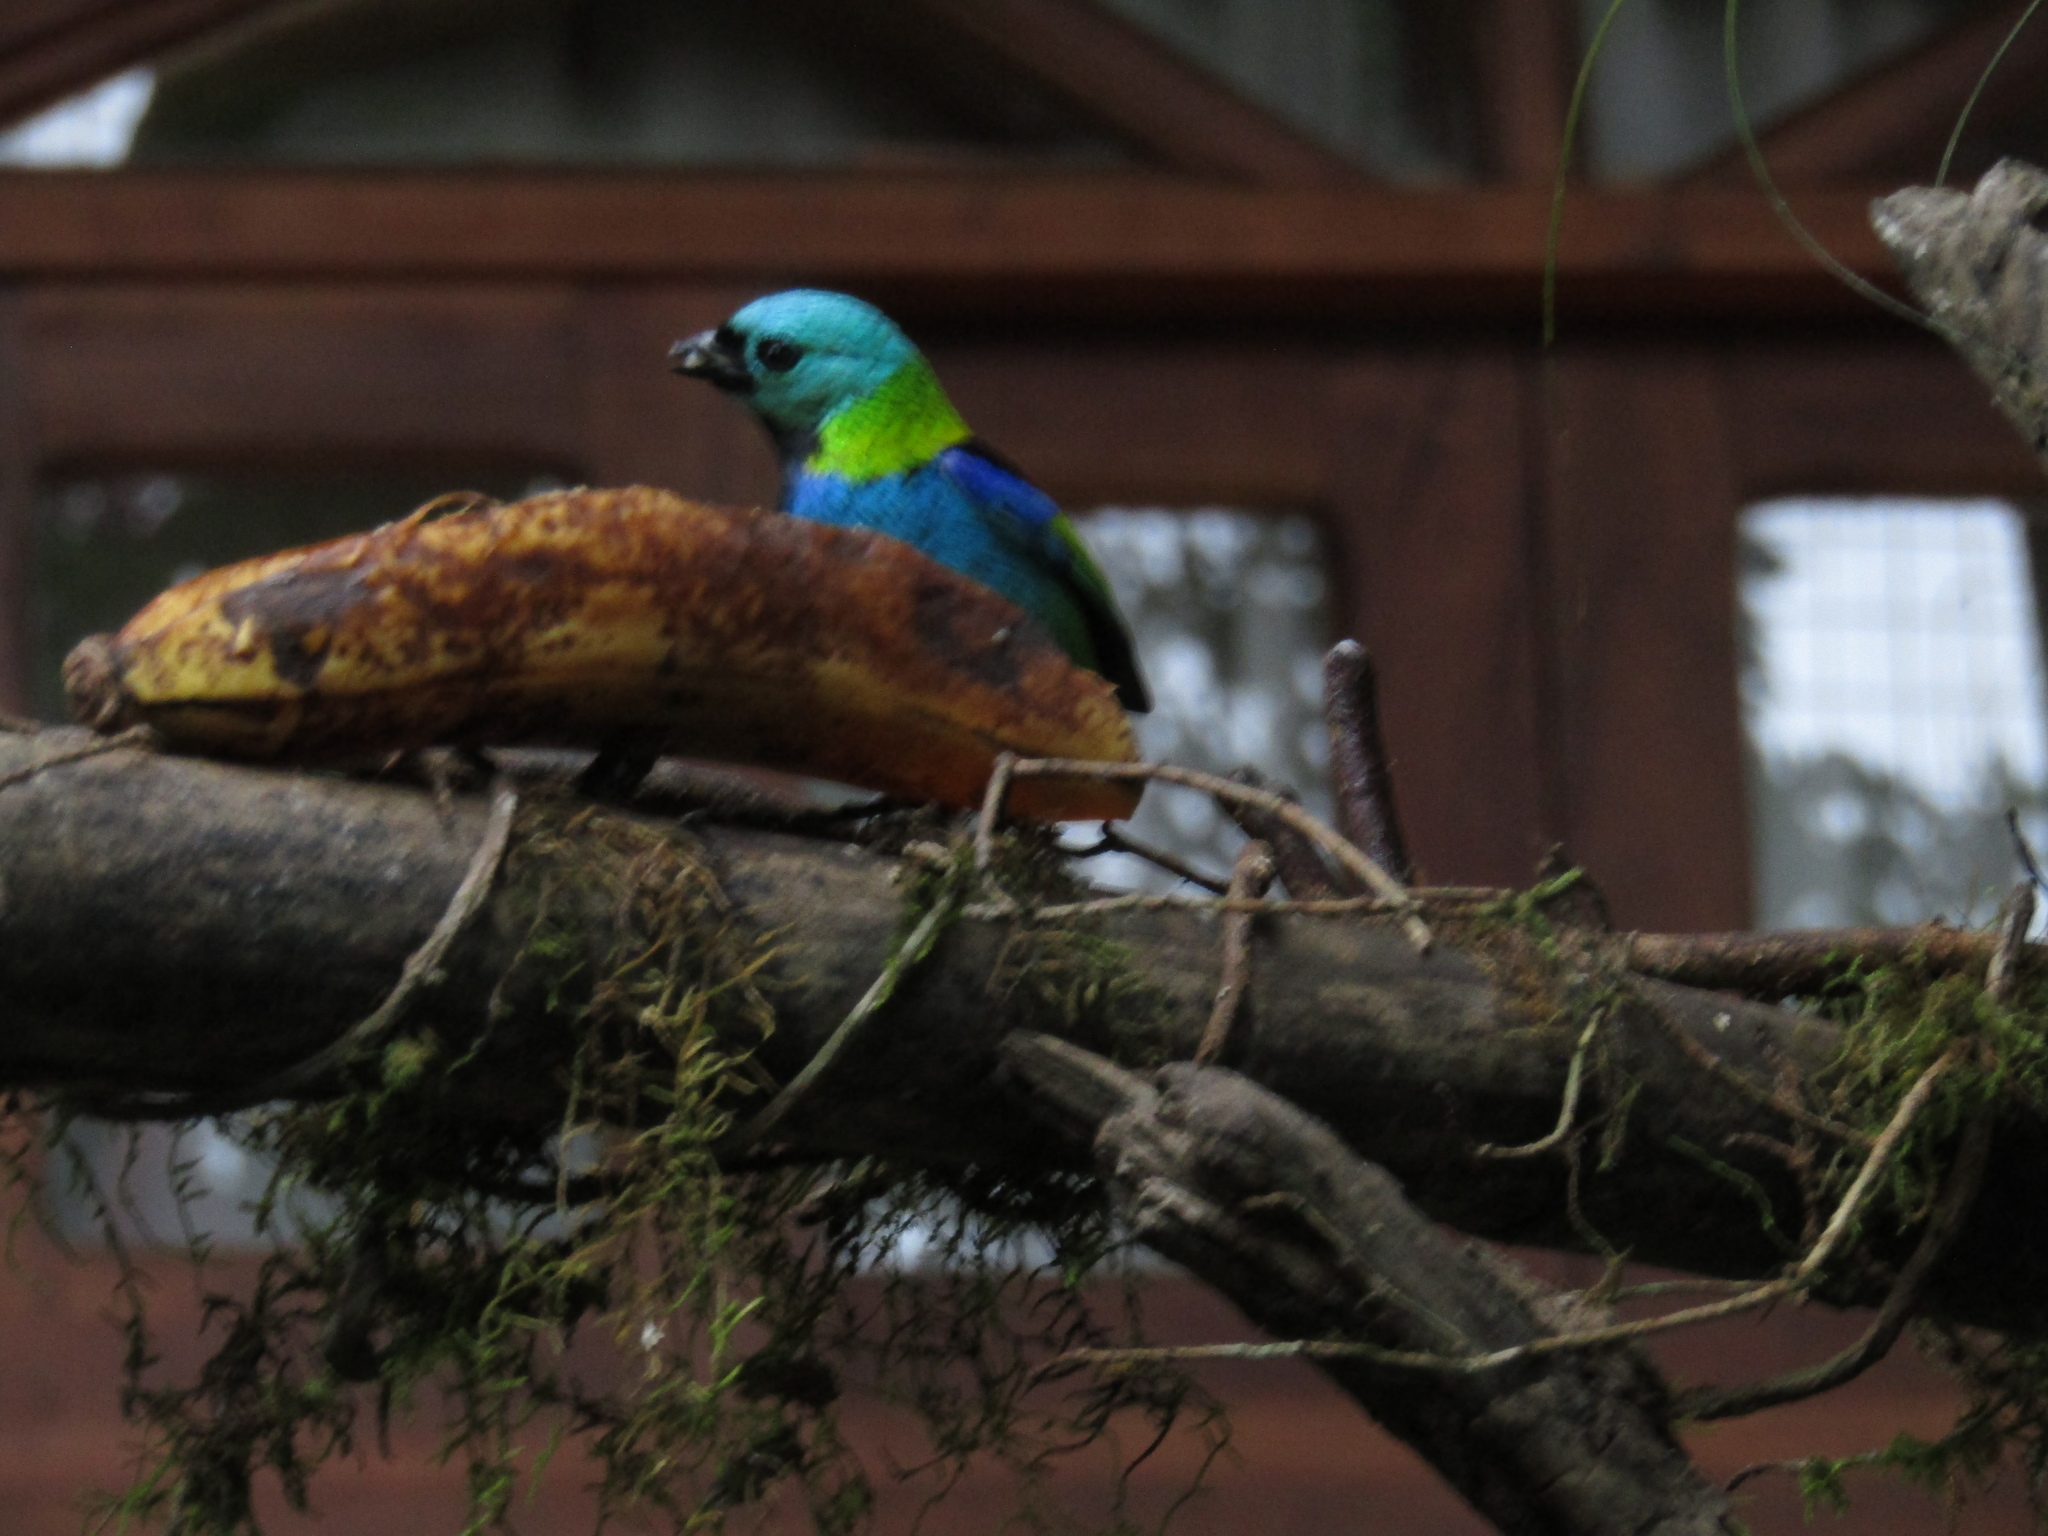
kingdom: Animalia
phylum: Chordata
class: Aves
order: Passeriformes
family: Thraupidae
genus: Tangara
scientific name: Tangara seledon
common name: Green-headed tanager
